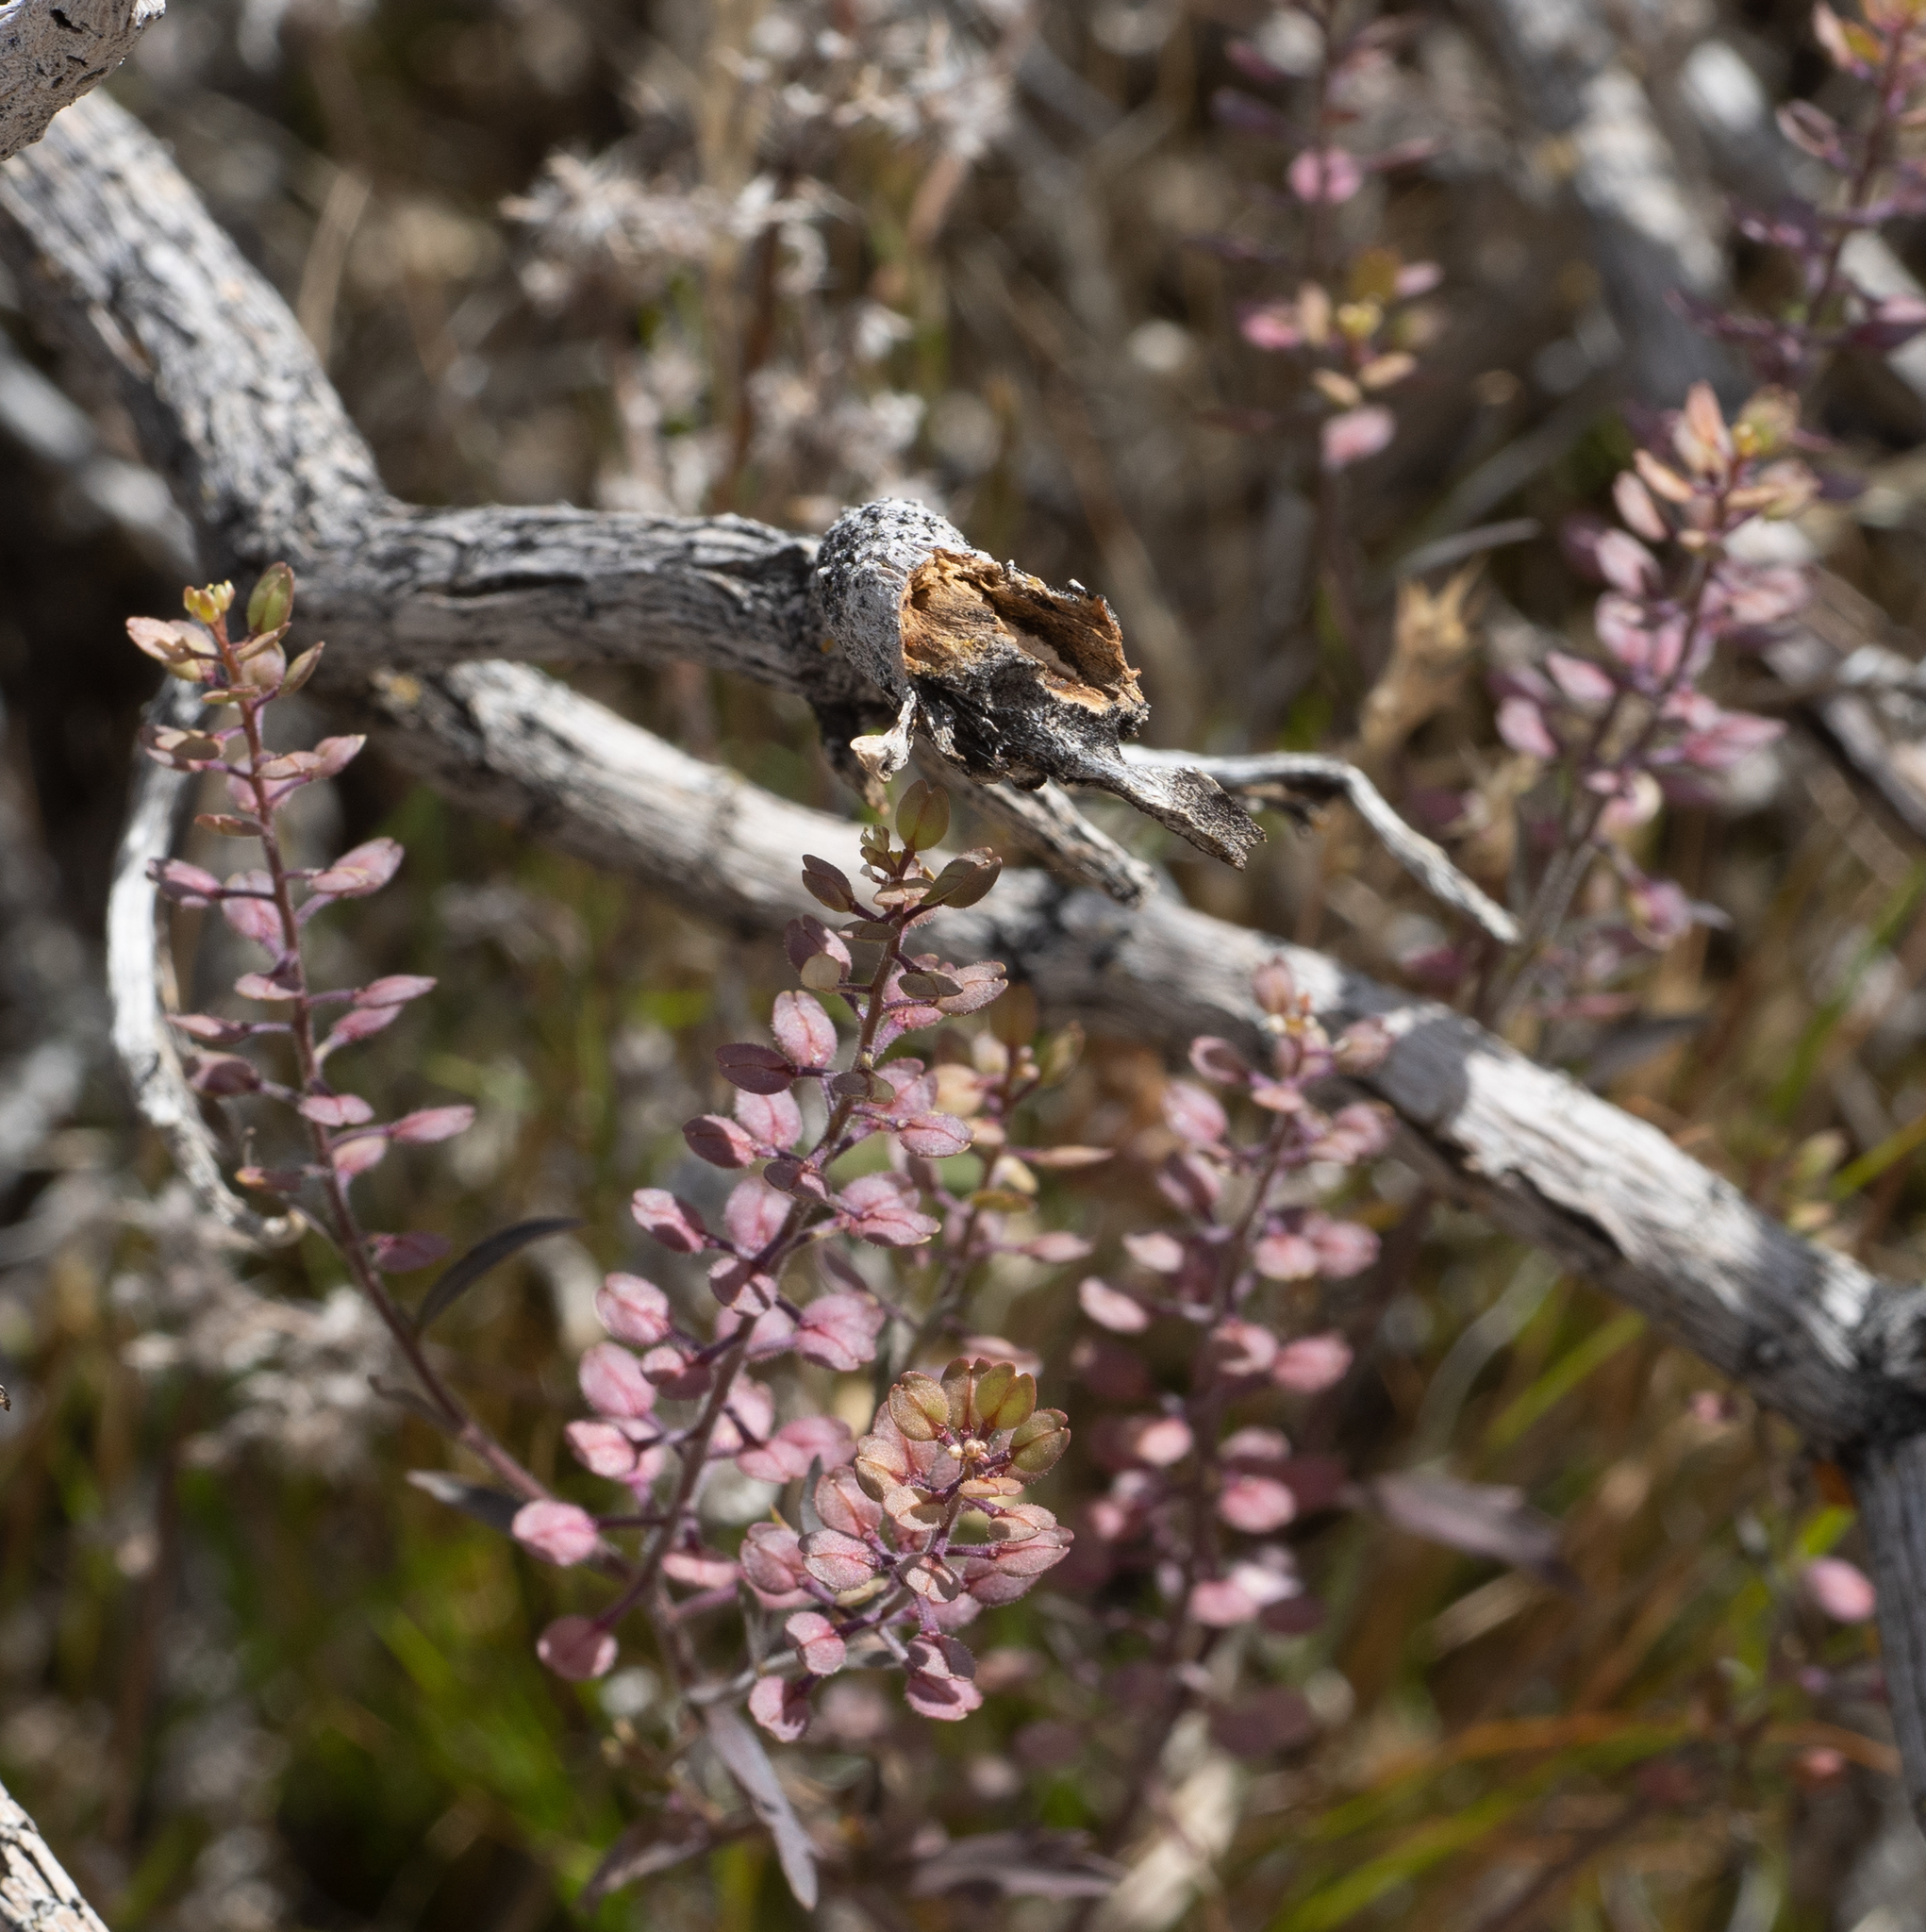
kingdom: Plantae
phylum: Tracheophyta
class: Magnoliopsida
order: Brassicales
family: Brassicaceae
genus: Lepidium
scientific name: Lepidium lasiocarpum
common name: Hairy-pod pepperwort
